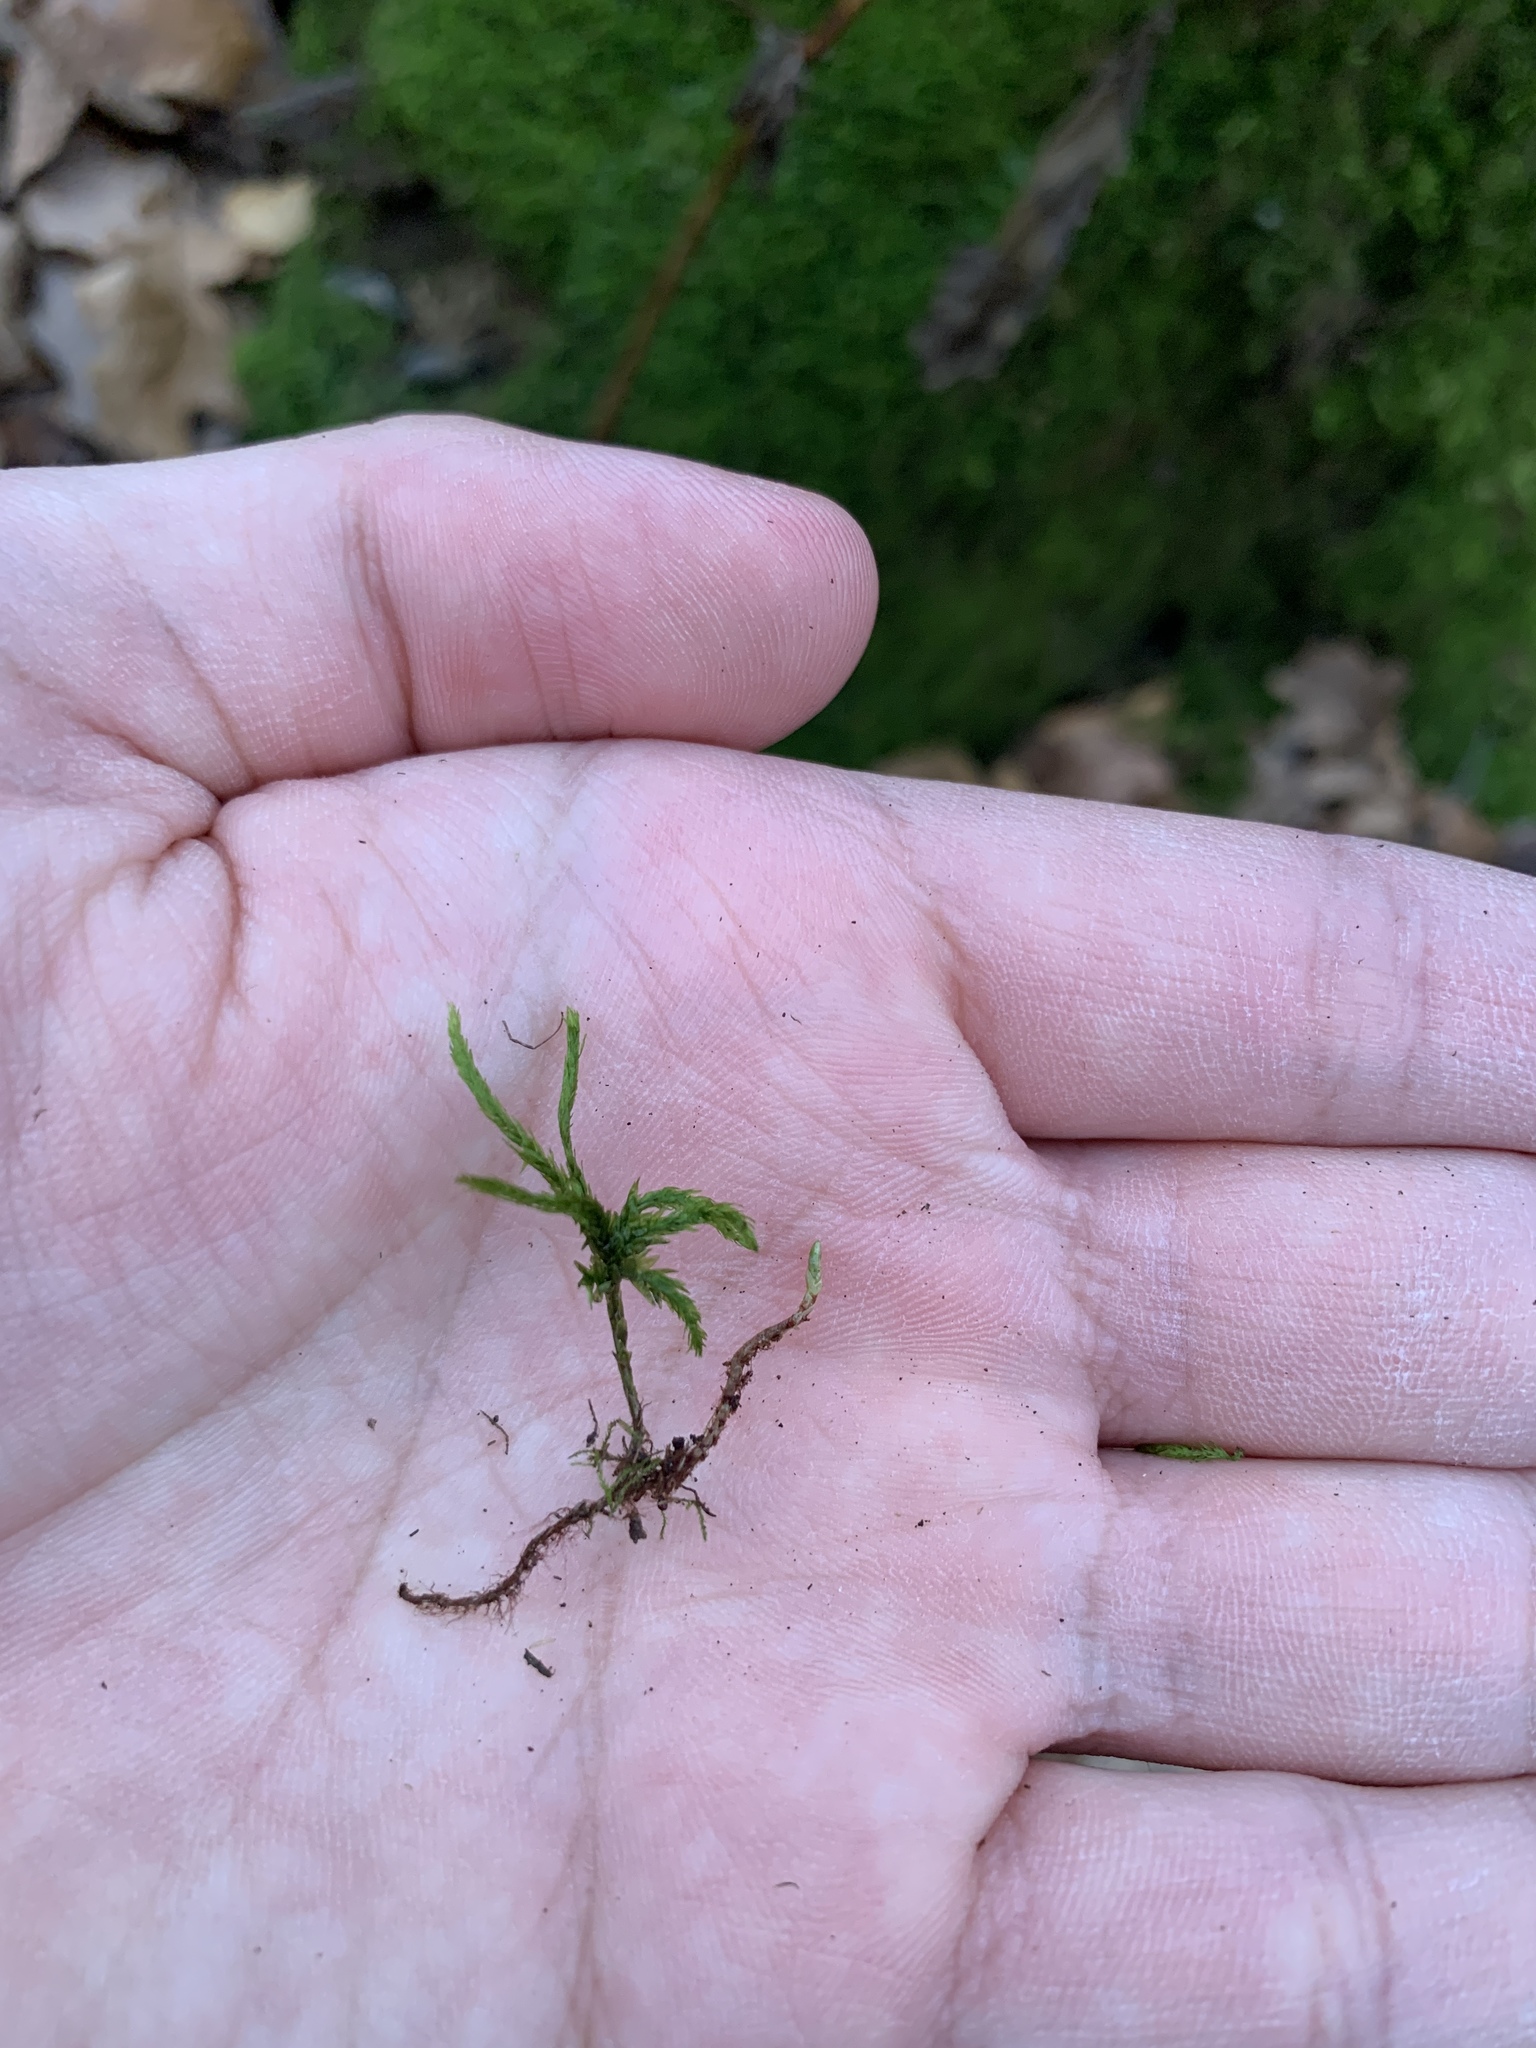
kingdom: Plantae
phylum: Bryophyta
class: Bryopsida
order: Hypnales
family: Climaciaceae
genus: Climacium
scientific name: Climacium dendroides
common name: Northern tree moss
